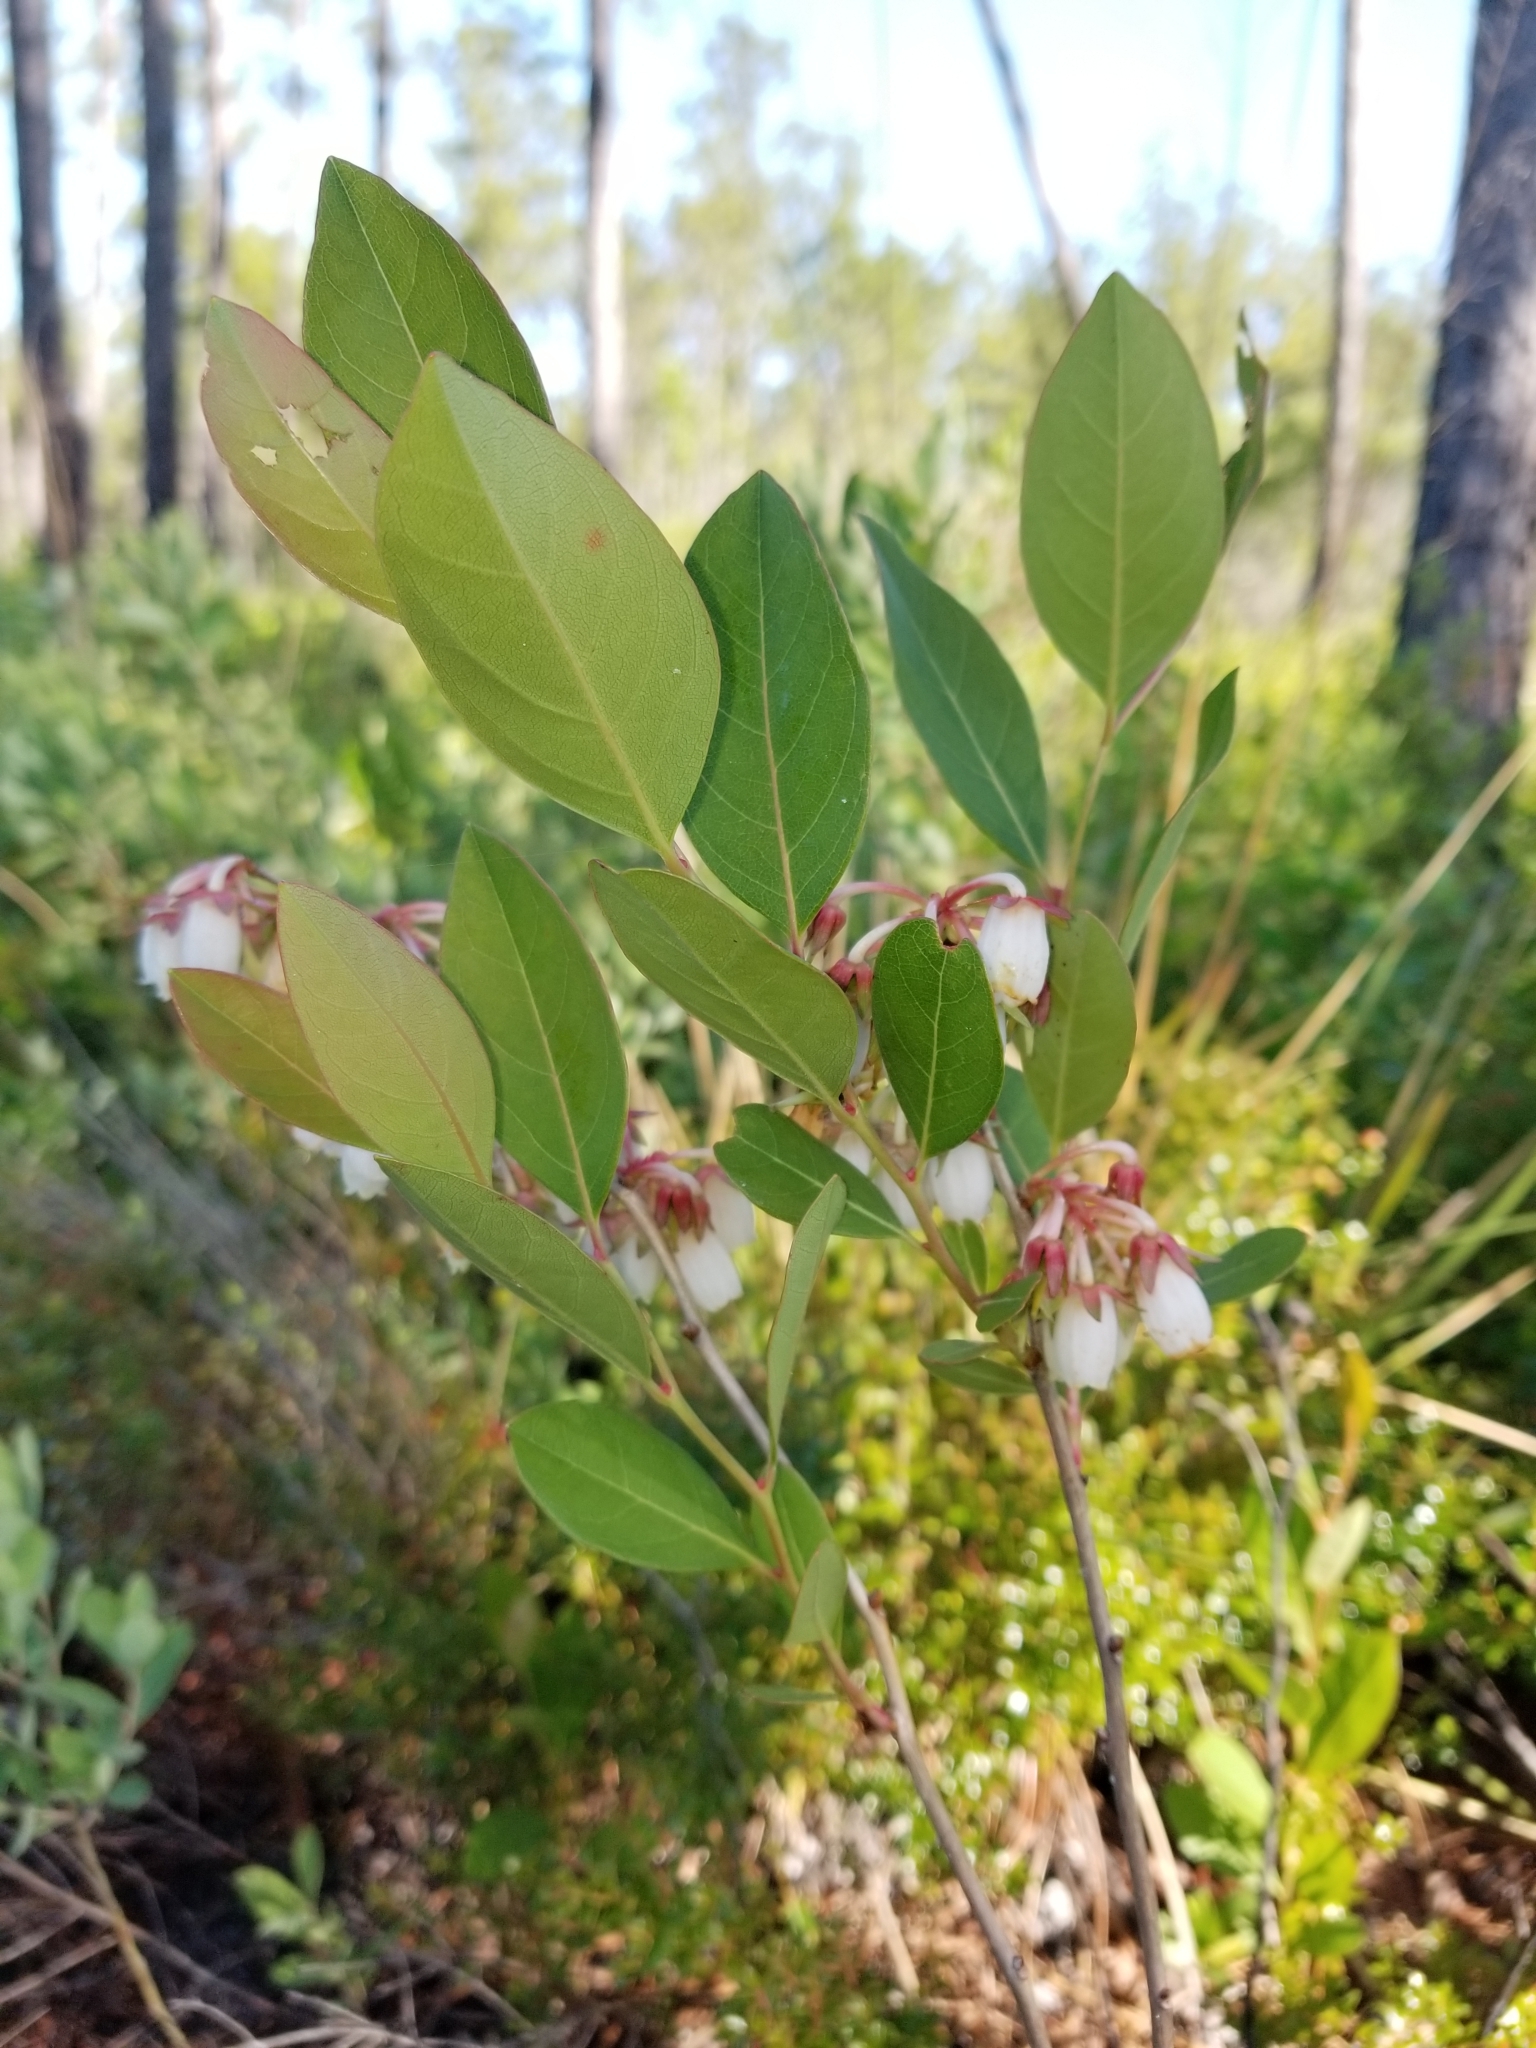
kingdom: Plantae
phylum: Tracheophyta
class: Magnoliopsida
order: Ericales
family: Ericaceae
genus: Lyonia
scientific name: Lyonia mariana
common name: Staggerbush
